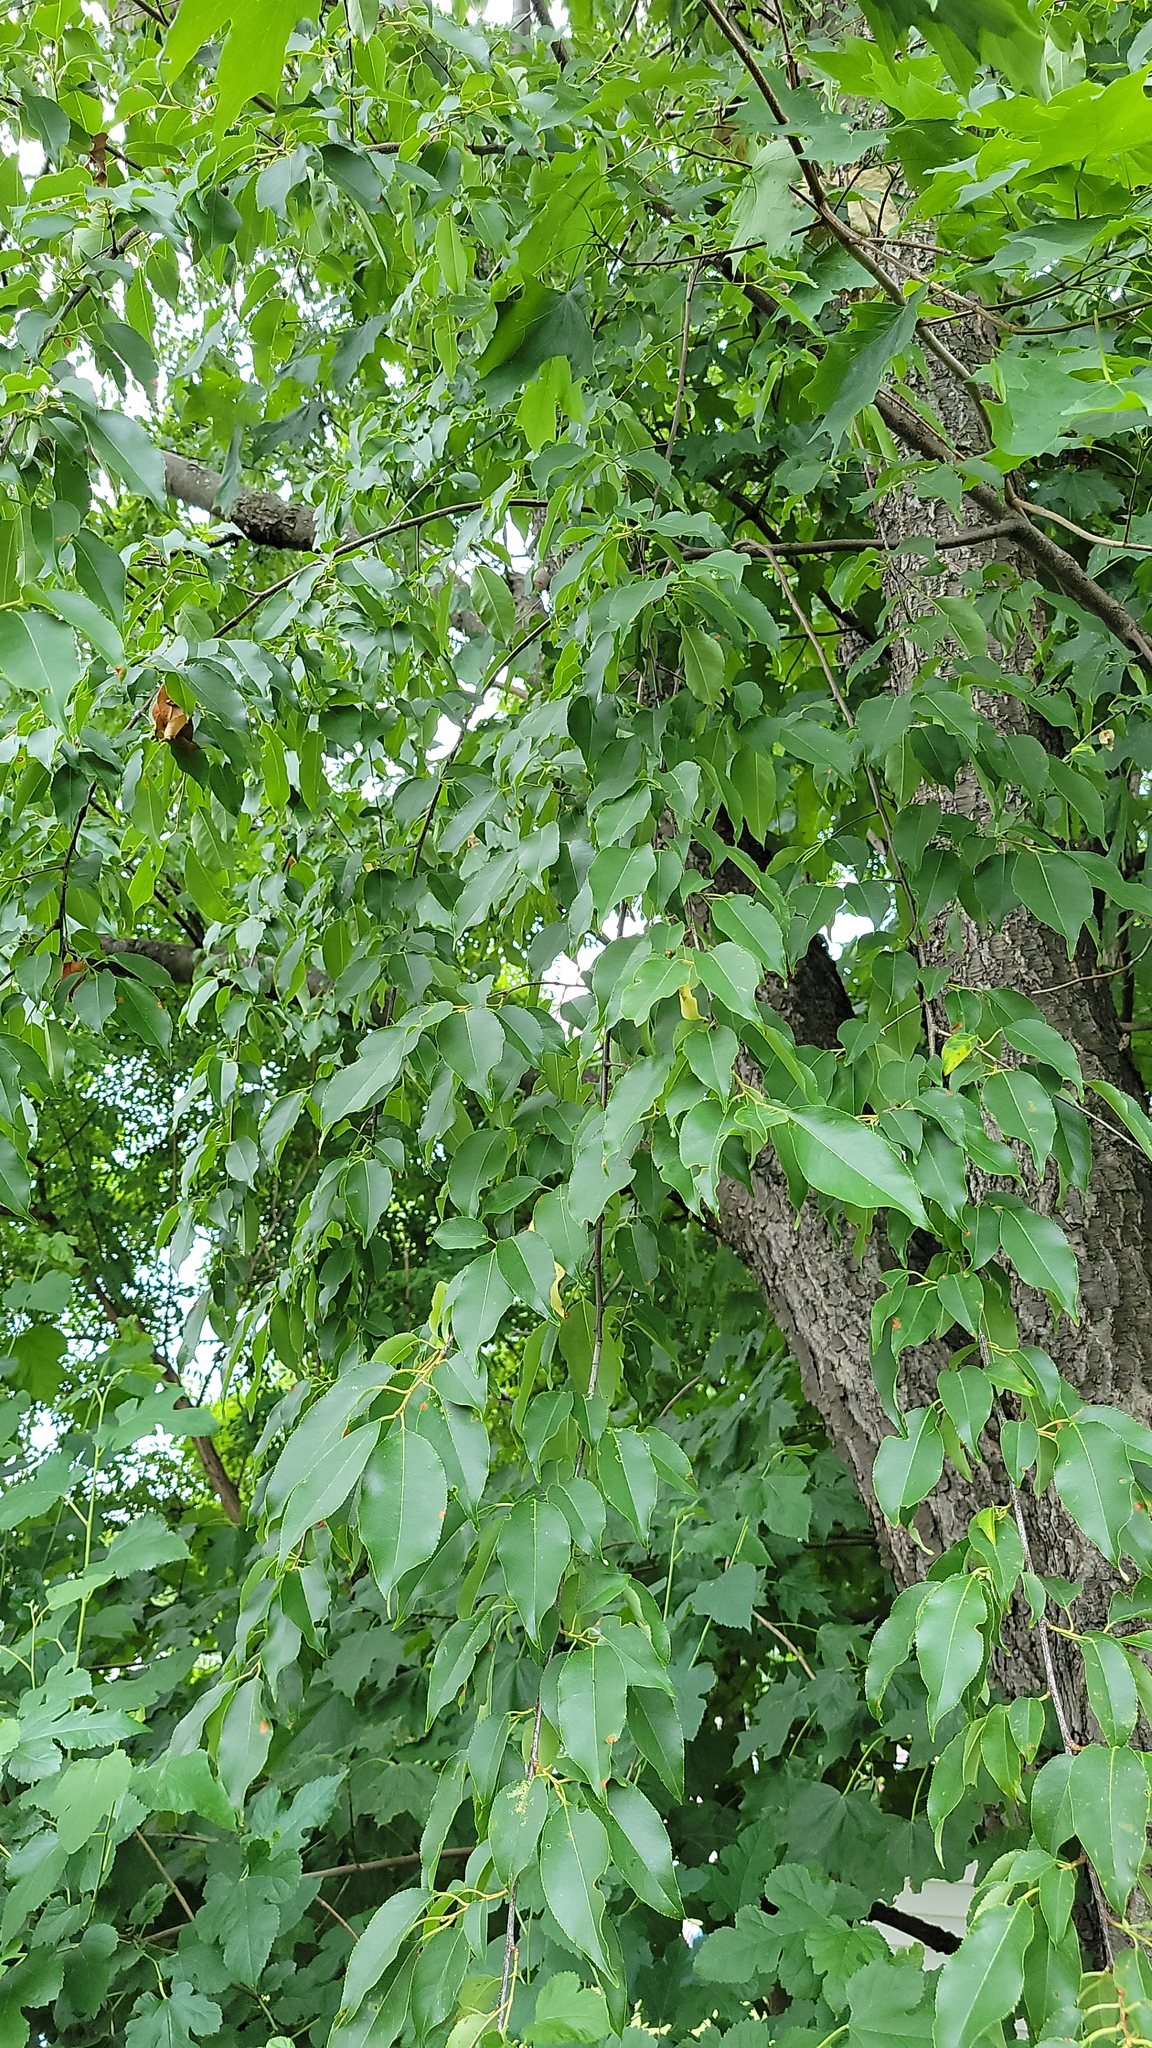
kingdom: Plantae
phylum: Tracheophyta
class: Magnoliopsida
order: Sapindales
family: Sapindaceae
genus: Acer
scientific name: Acer saccharum
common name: Sugar maple
